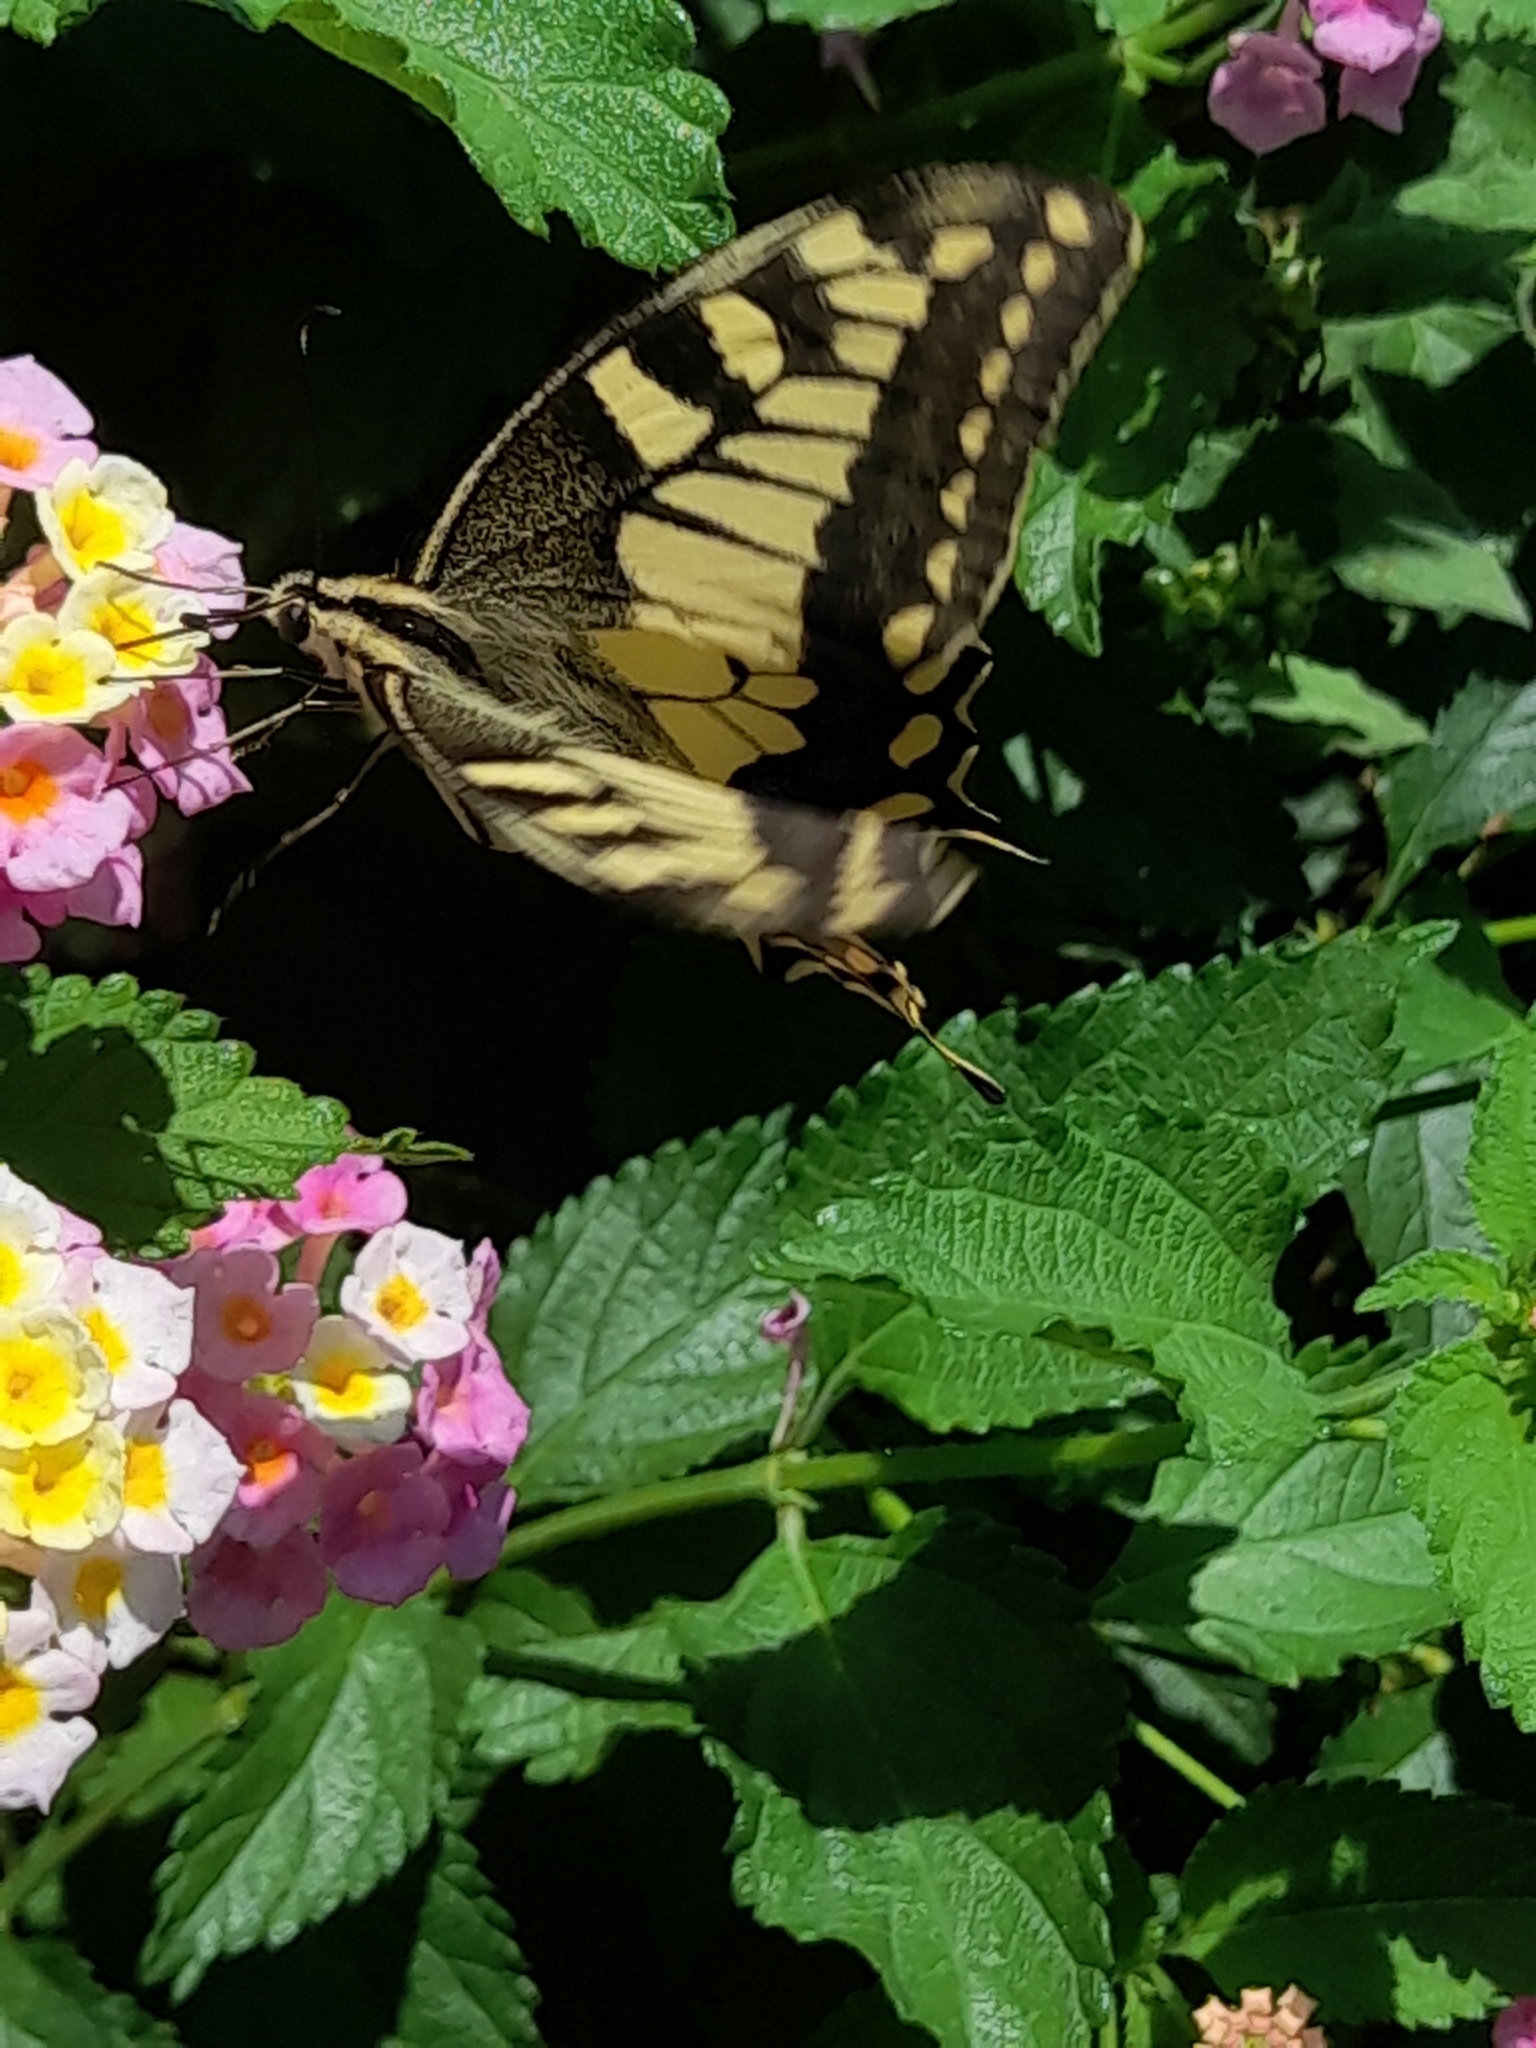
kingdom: Animalia
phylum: Arthropoda
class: Insecta
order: Lepidoptera
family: Papilionidae
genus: Papilio
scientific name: Papilio machaon
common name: Swallowtail
